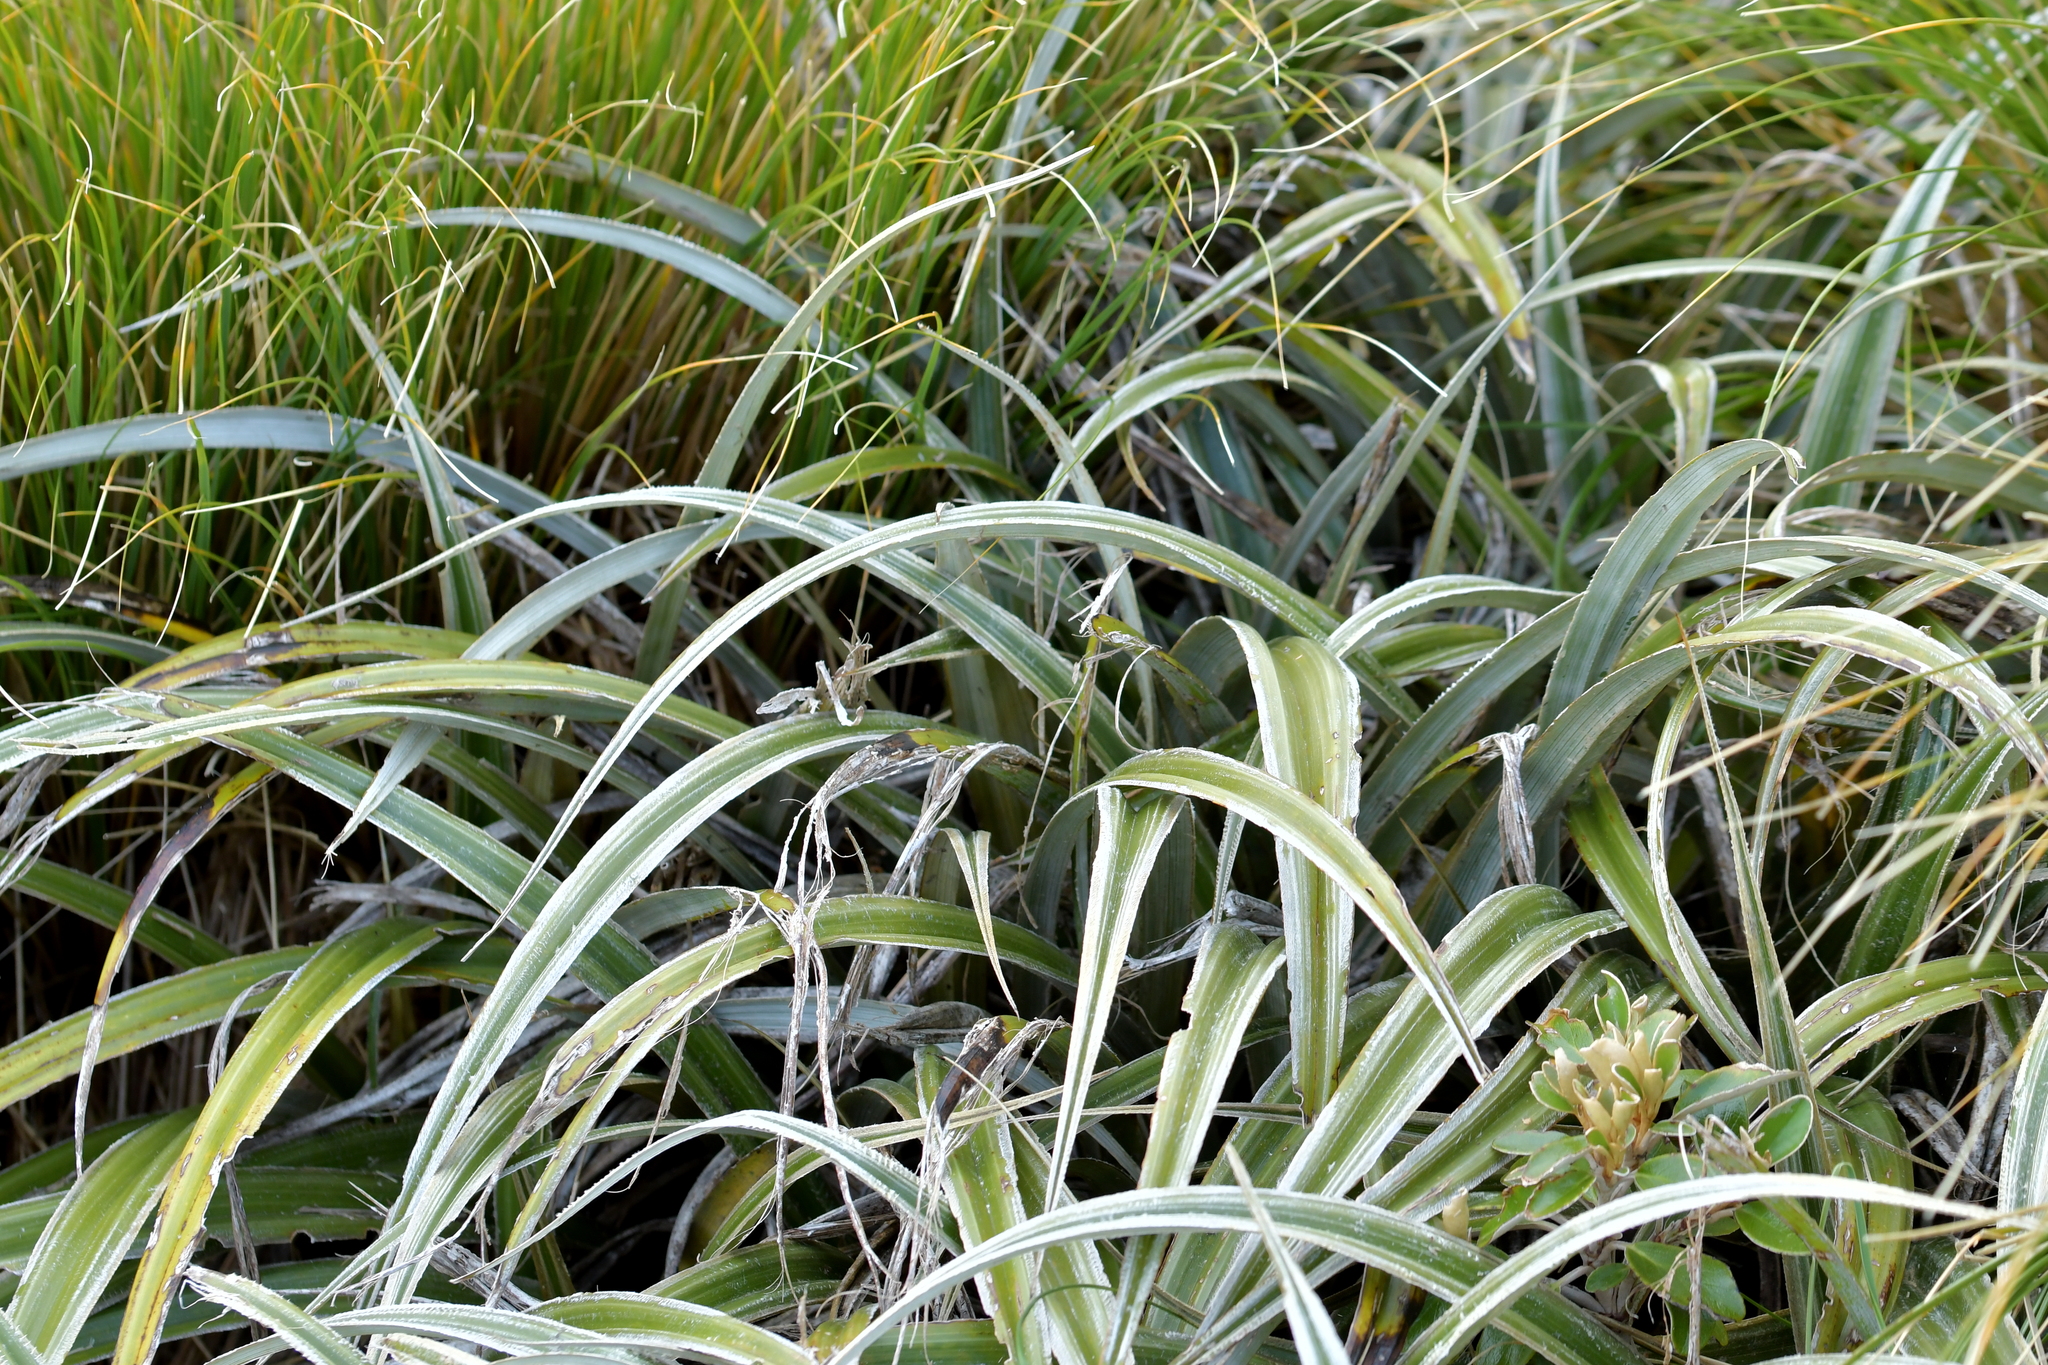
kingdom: Plantae
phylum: Tracheophyta
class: Liliopsida
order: Asparagales
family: Asteliaceae
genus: Astelia
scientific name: Astelia nervosa
